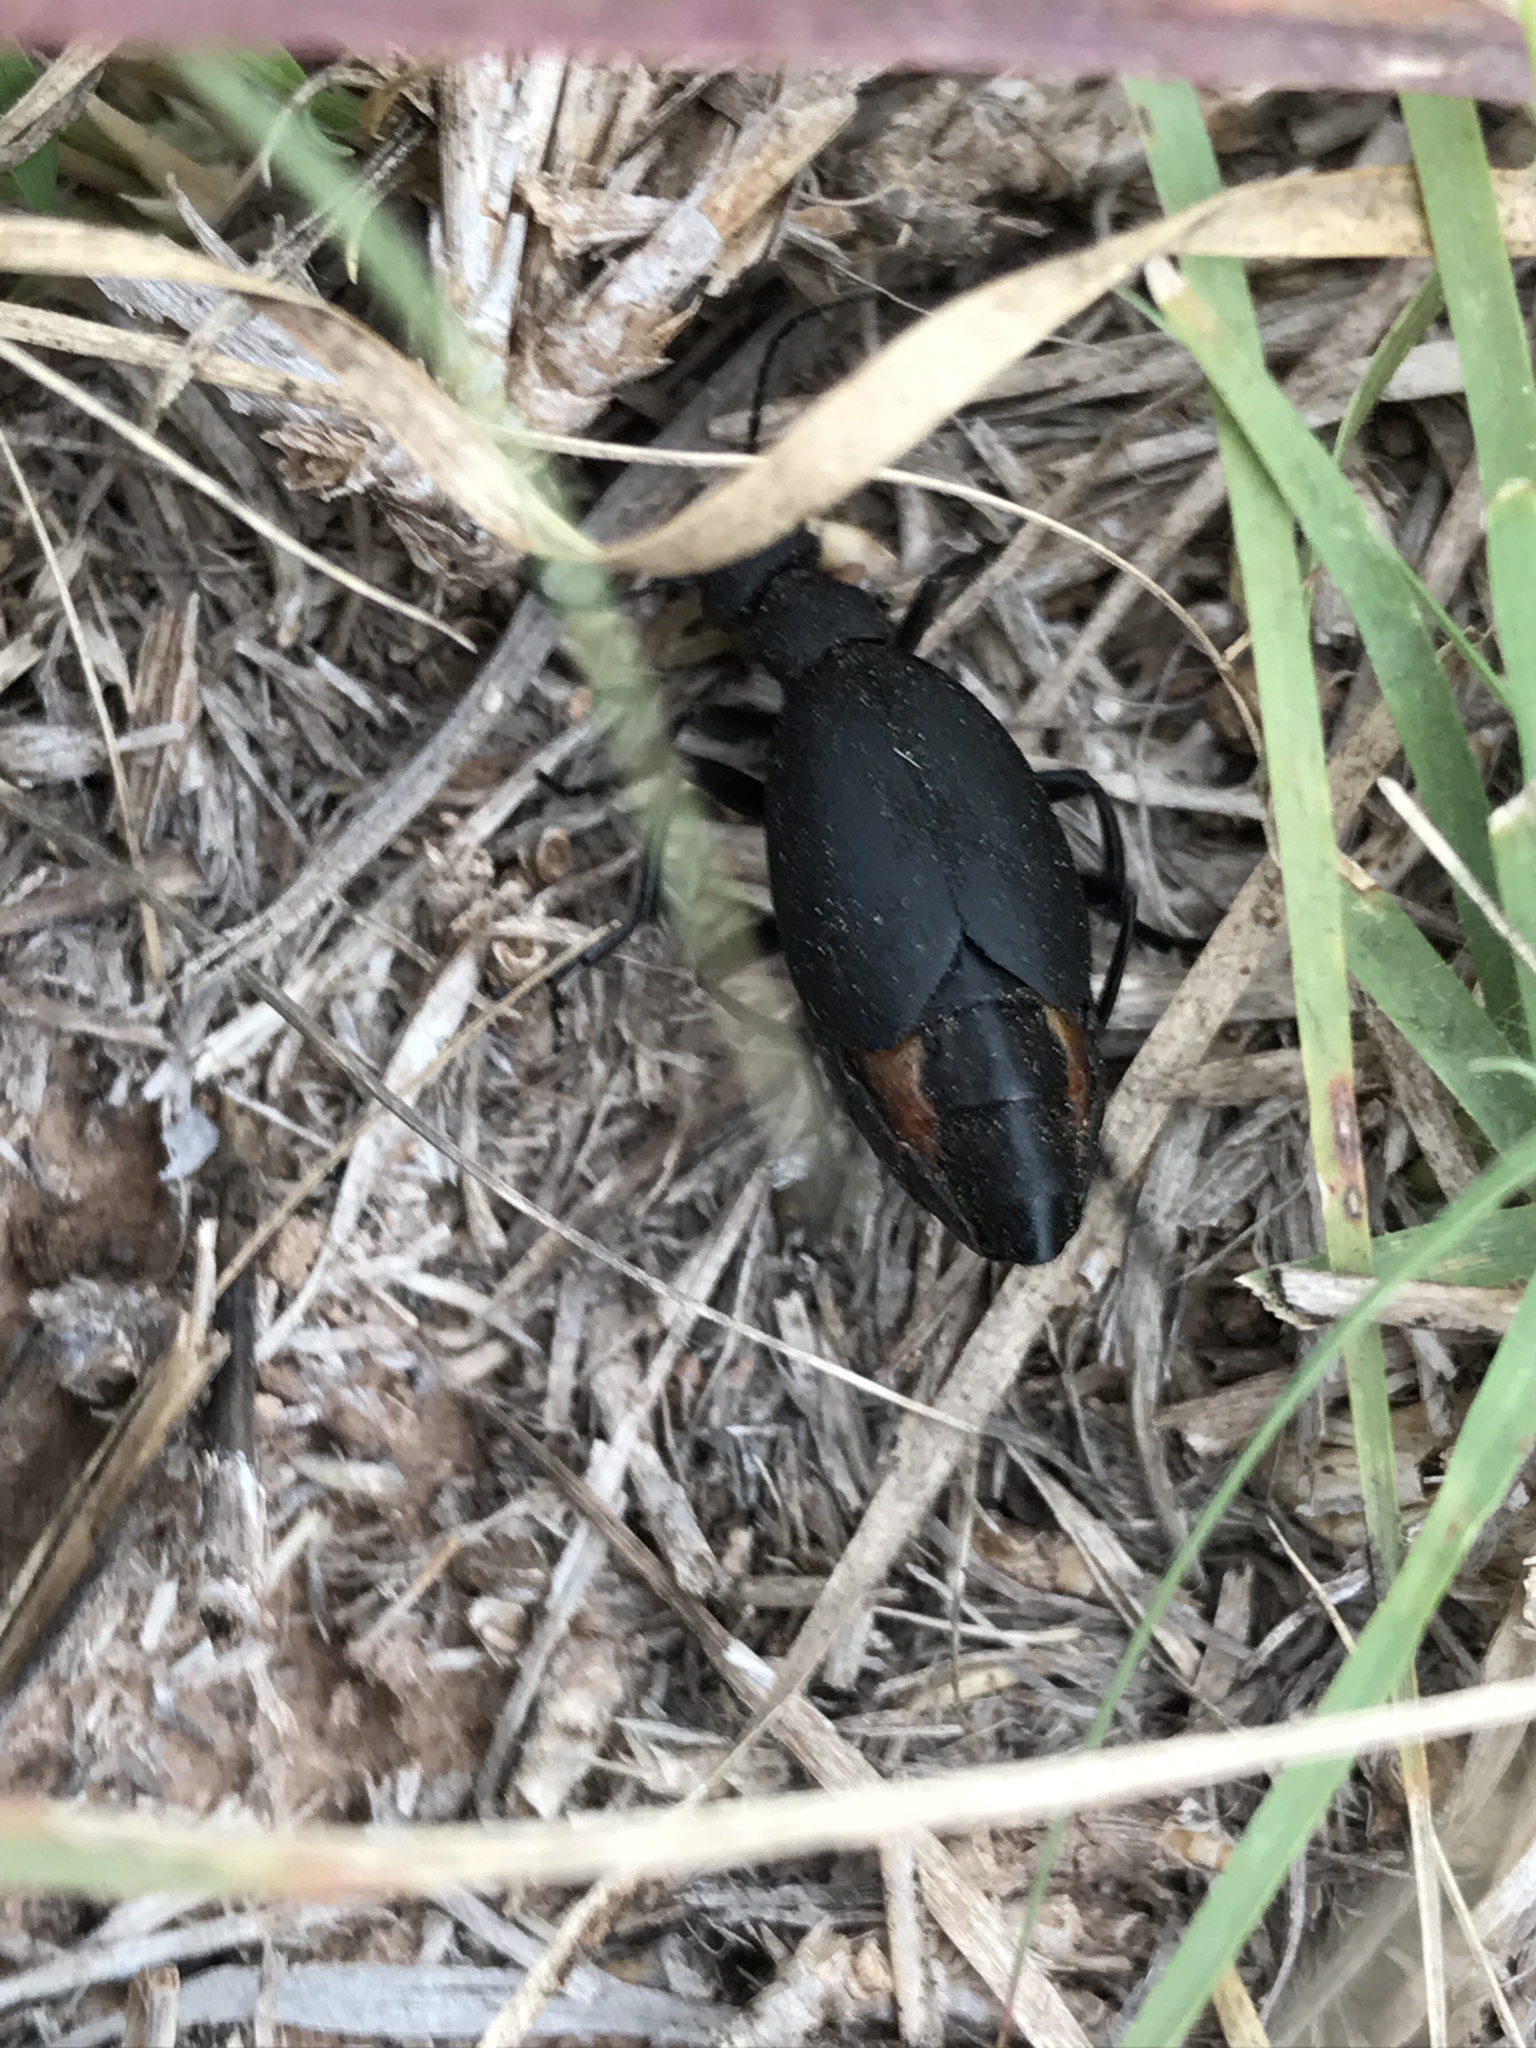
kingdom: Animalia
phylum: Arthropoda
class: Insecta
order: Coleoptera
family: Meloidae
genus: Epicauta
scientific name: Epicauta conferta
